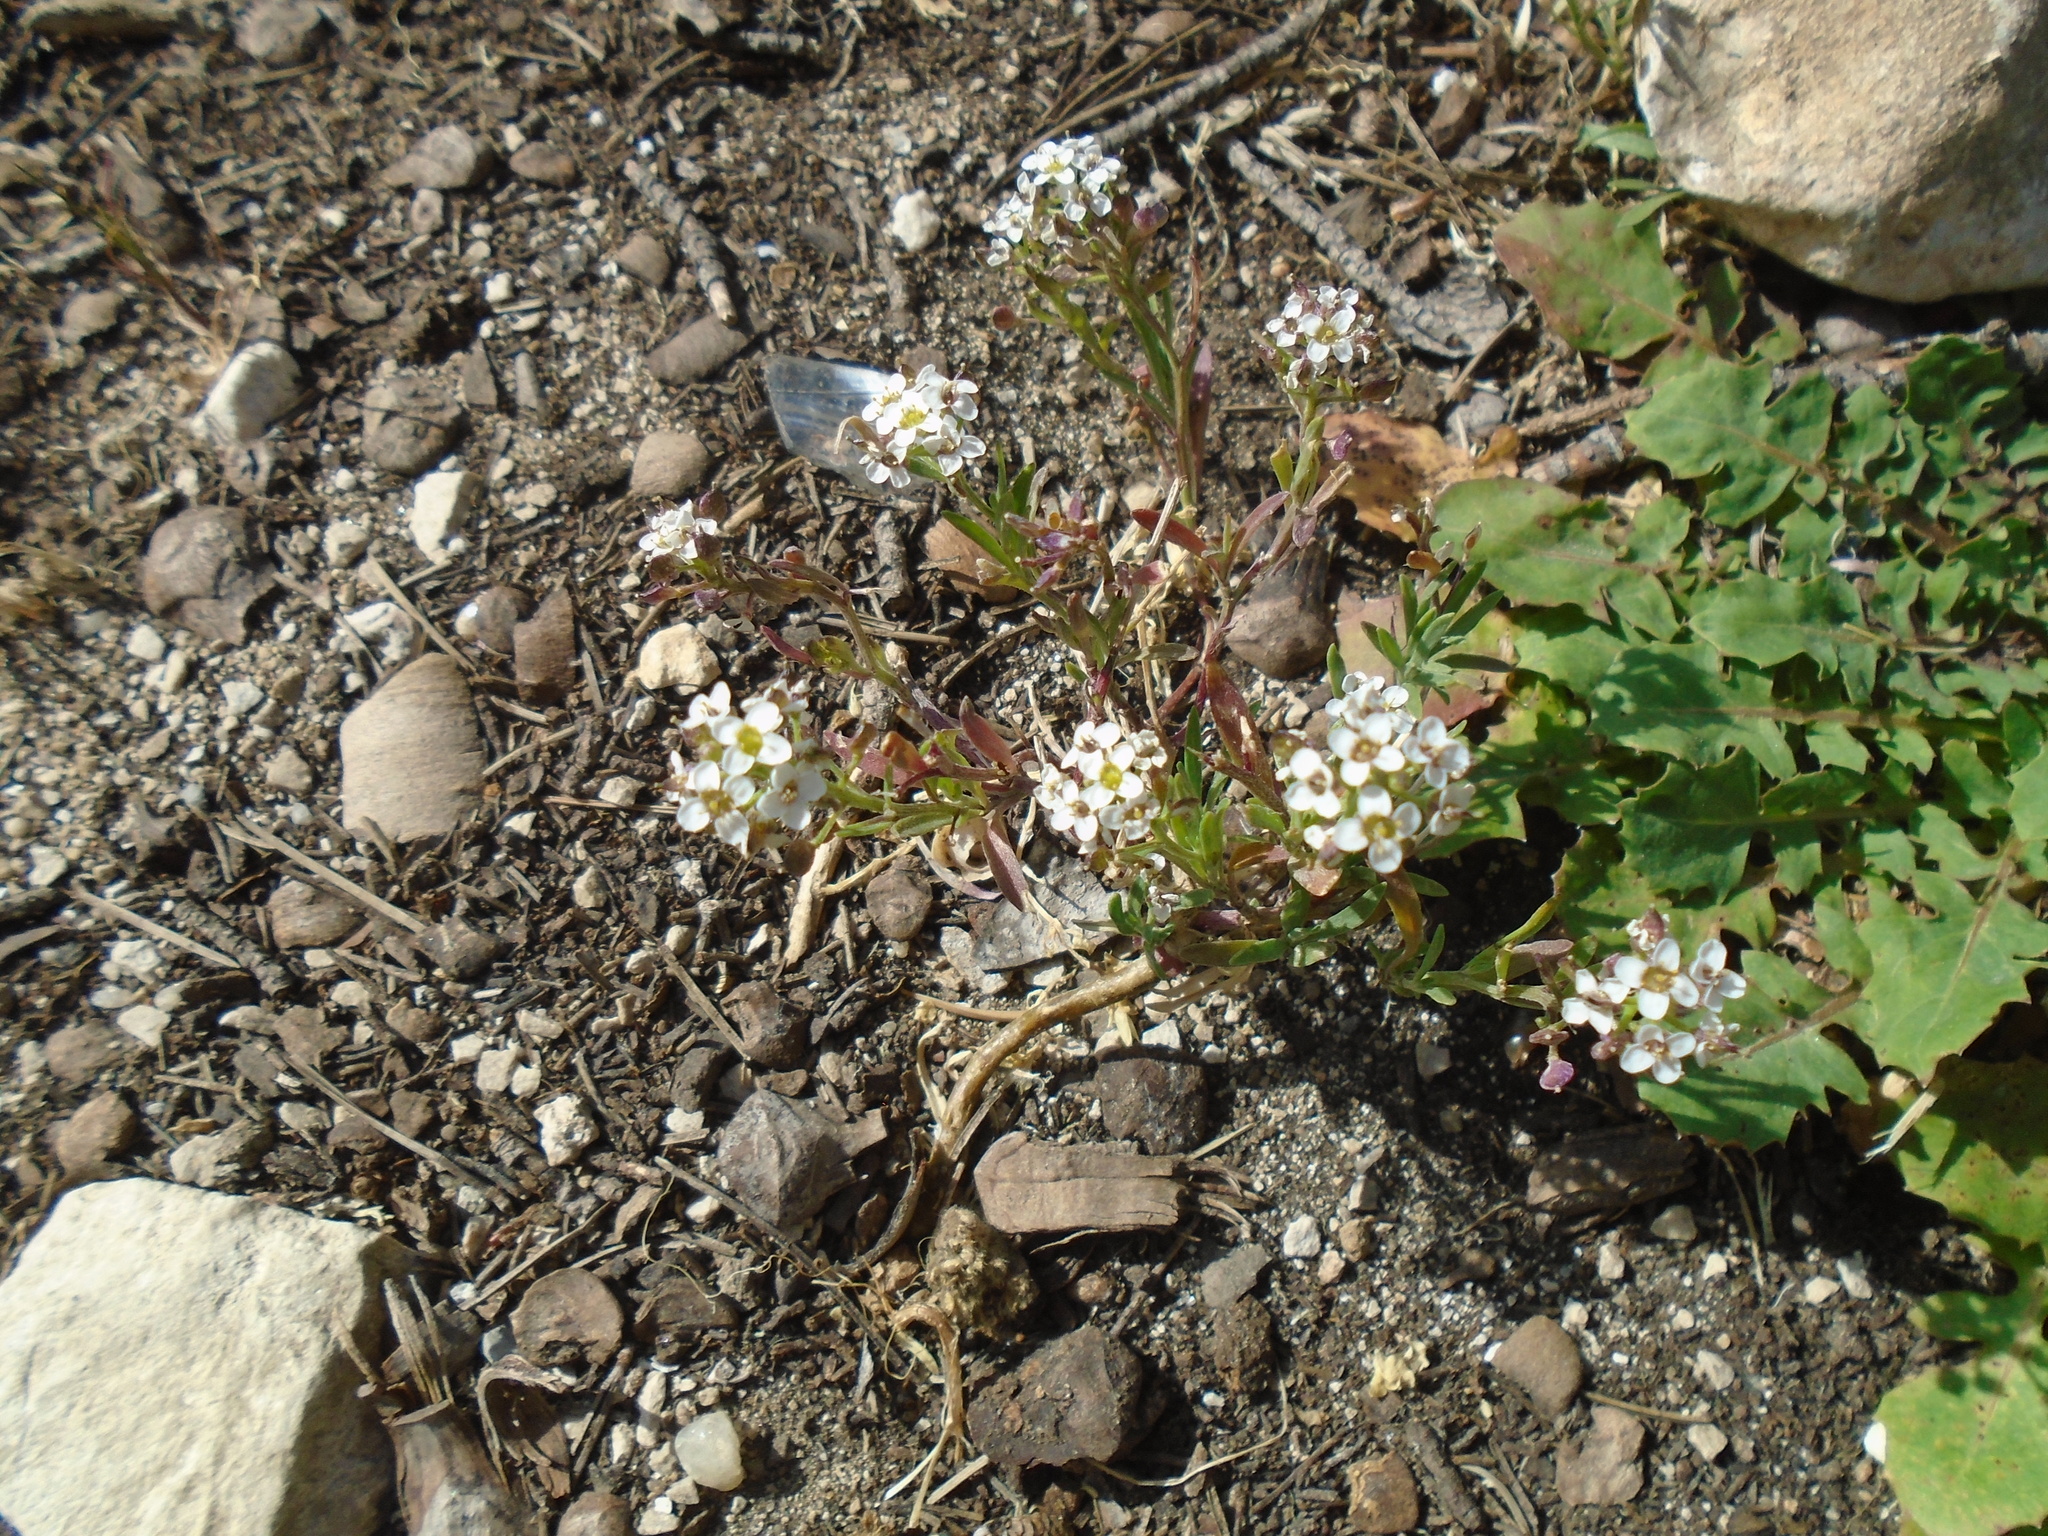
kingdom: Plantae
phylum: Tracheophyta
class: Magnoliopsida
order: Brassicales
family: Brassicaceae
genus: Lobularia
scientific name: Lobularia maritima
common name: Sweet alison
